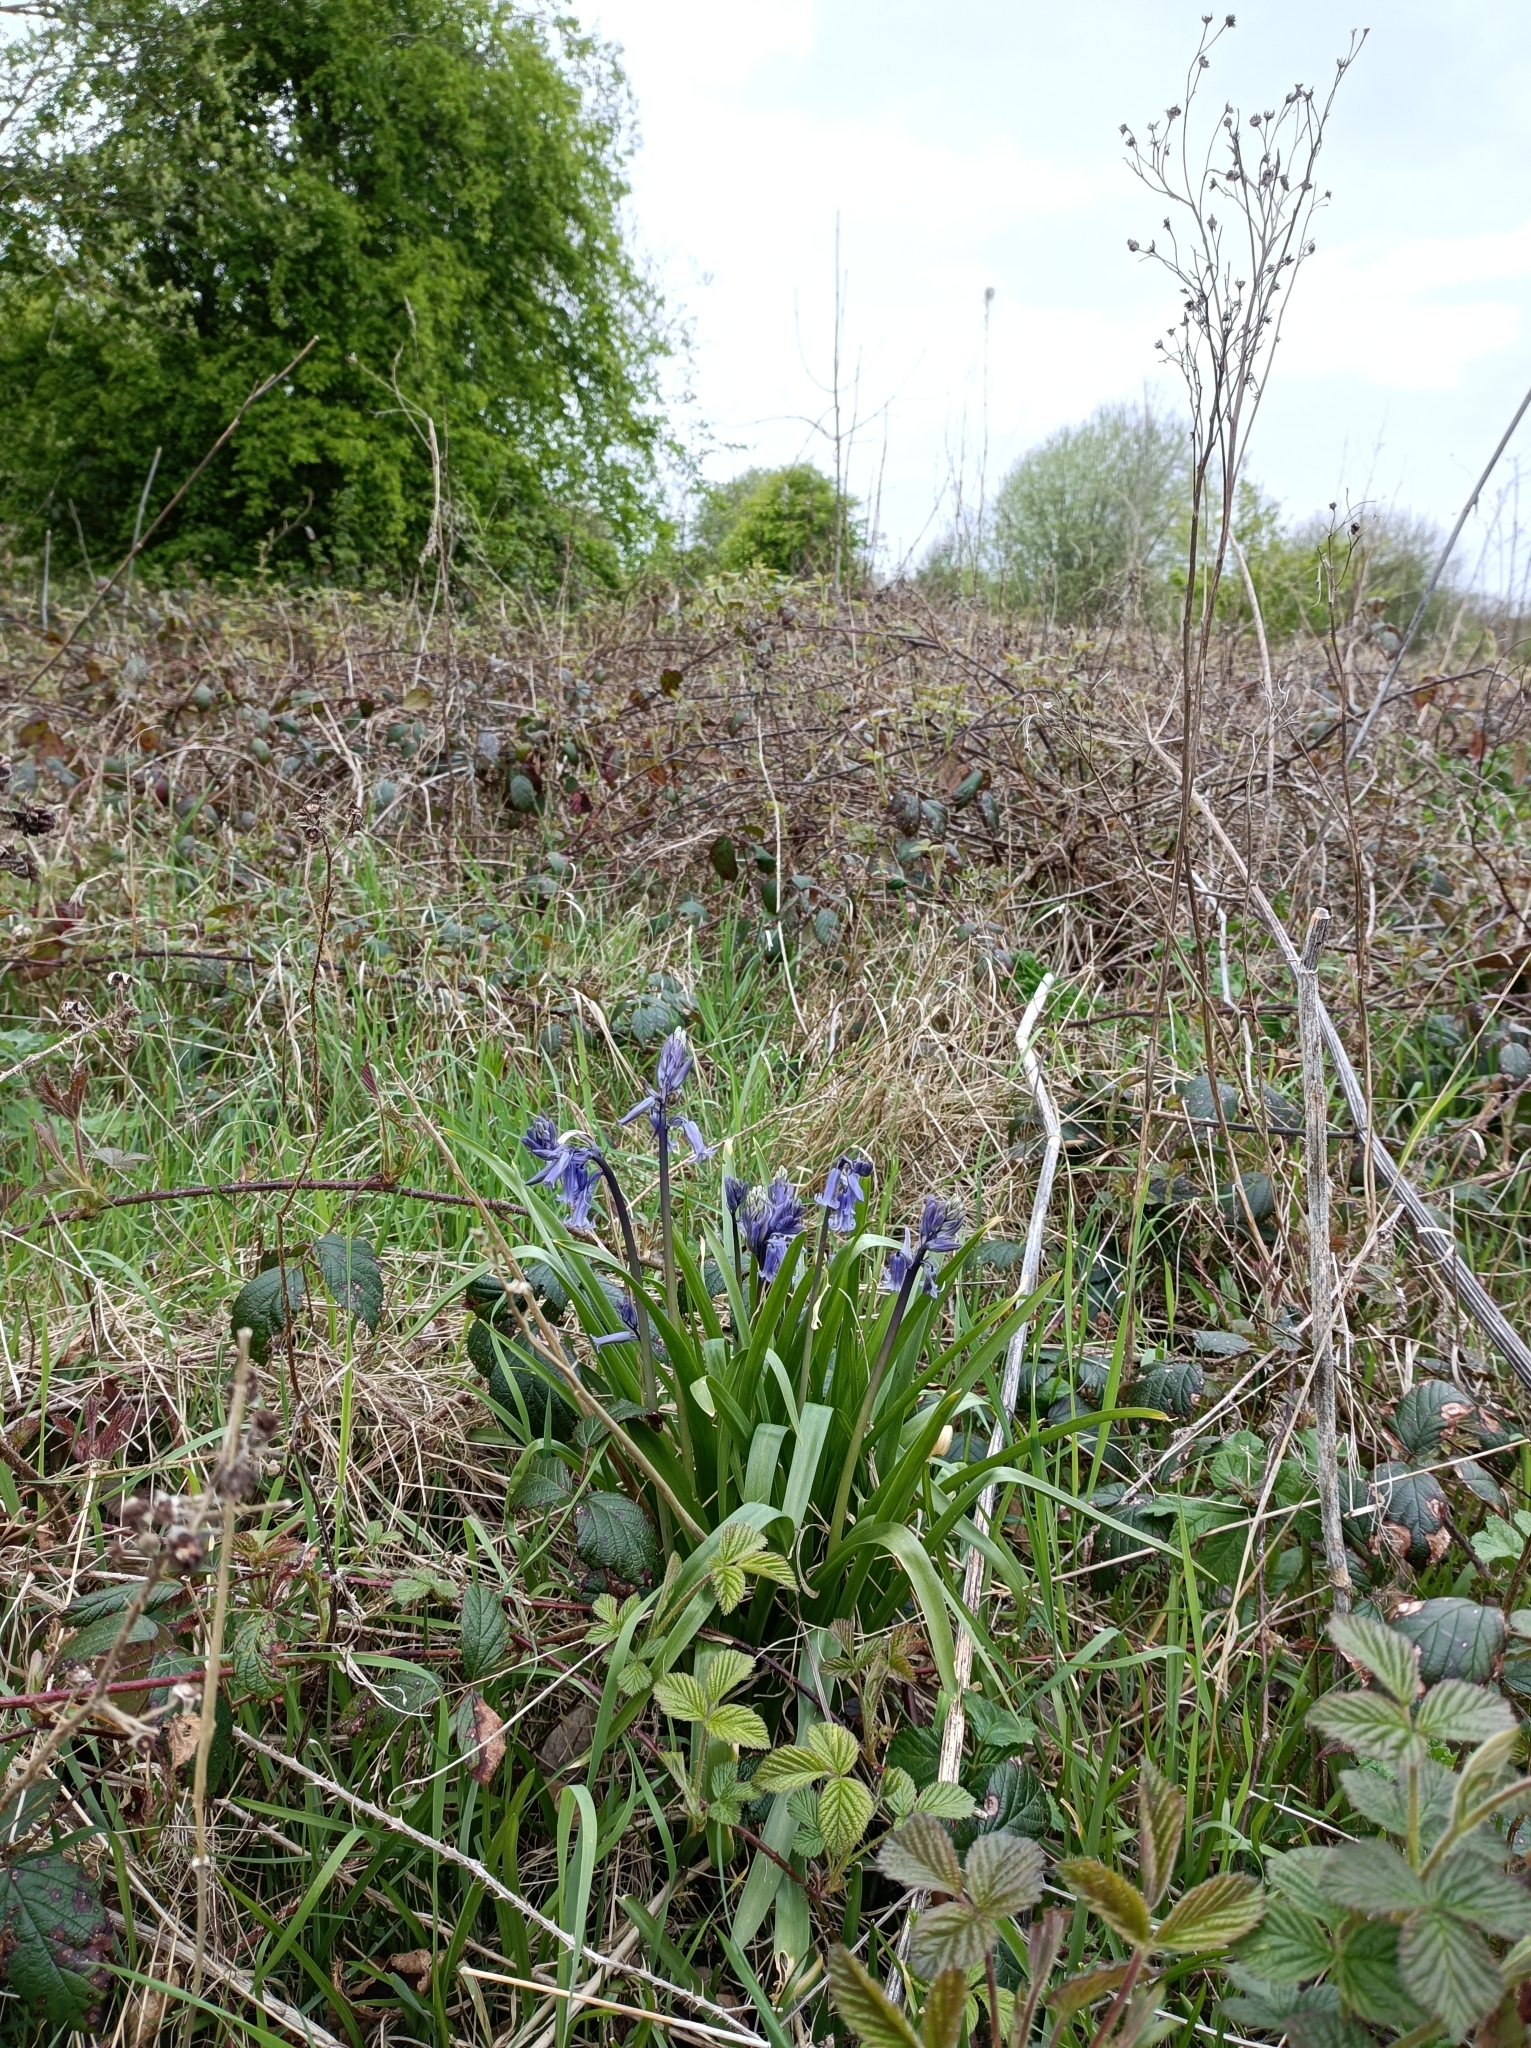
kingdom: Plantae
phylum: Tracheophyta
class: Liliopsida
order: Asparagales
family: Asparagaceae
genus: Hyacinthoides
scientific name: Hyacinthoides non-scripta
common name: Bluebell
